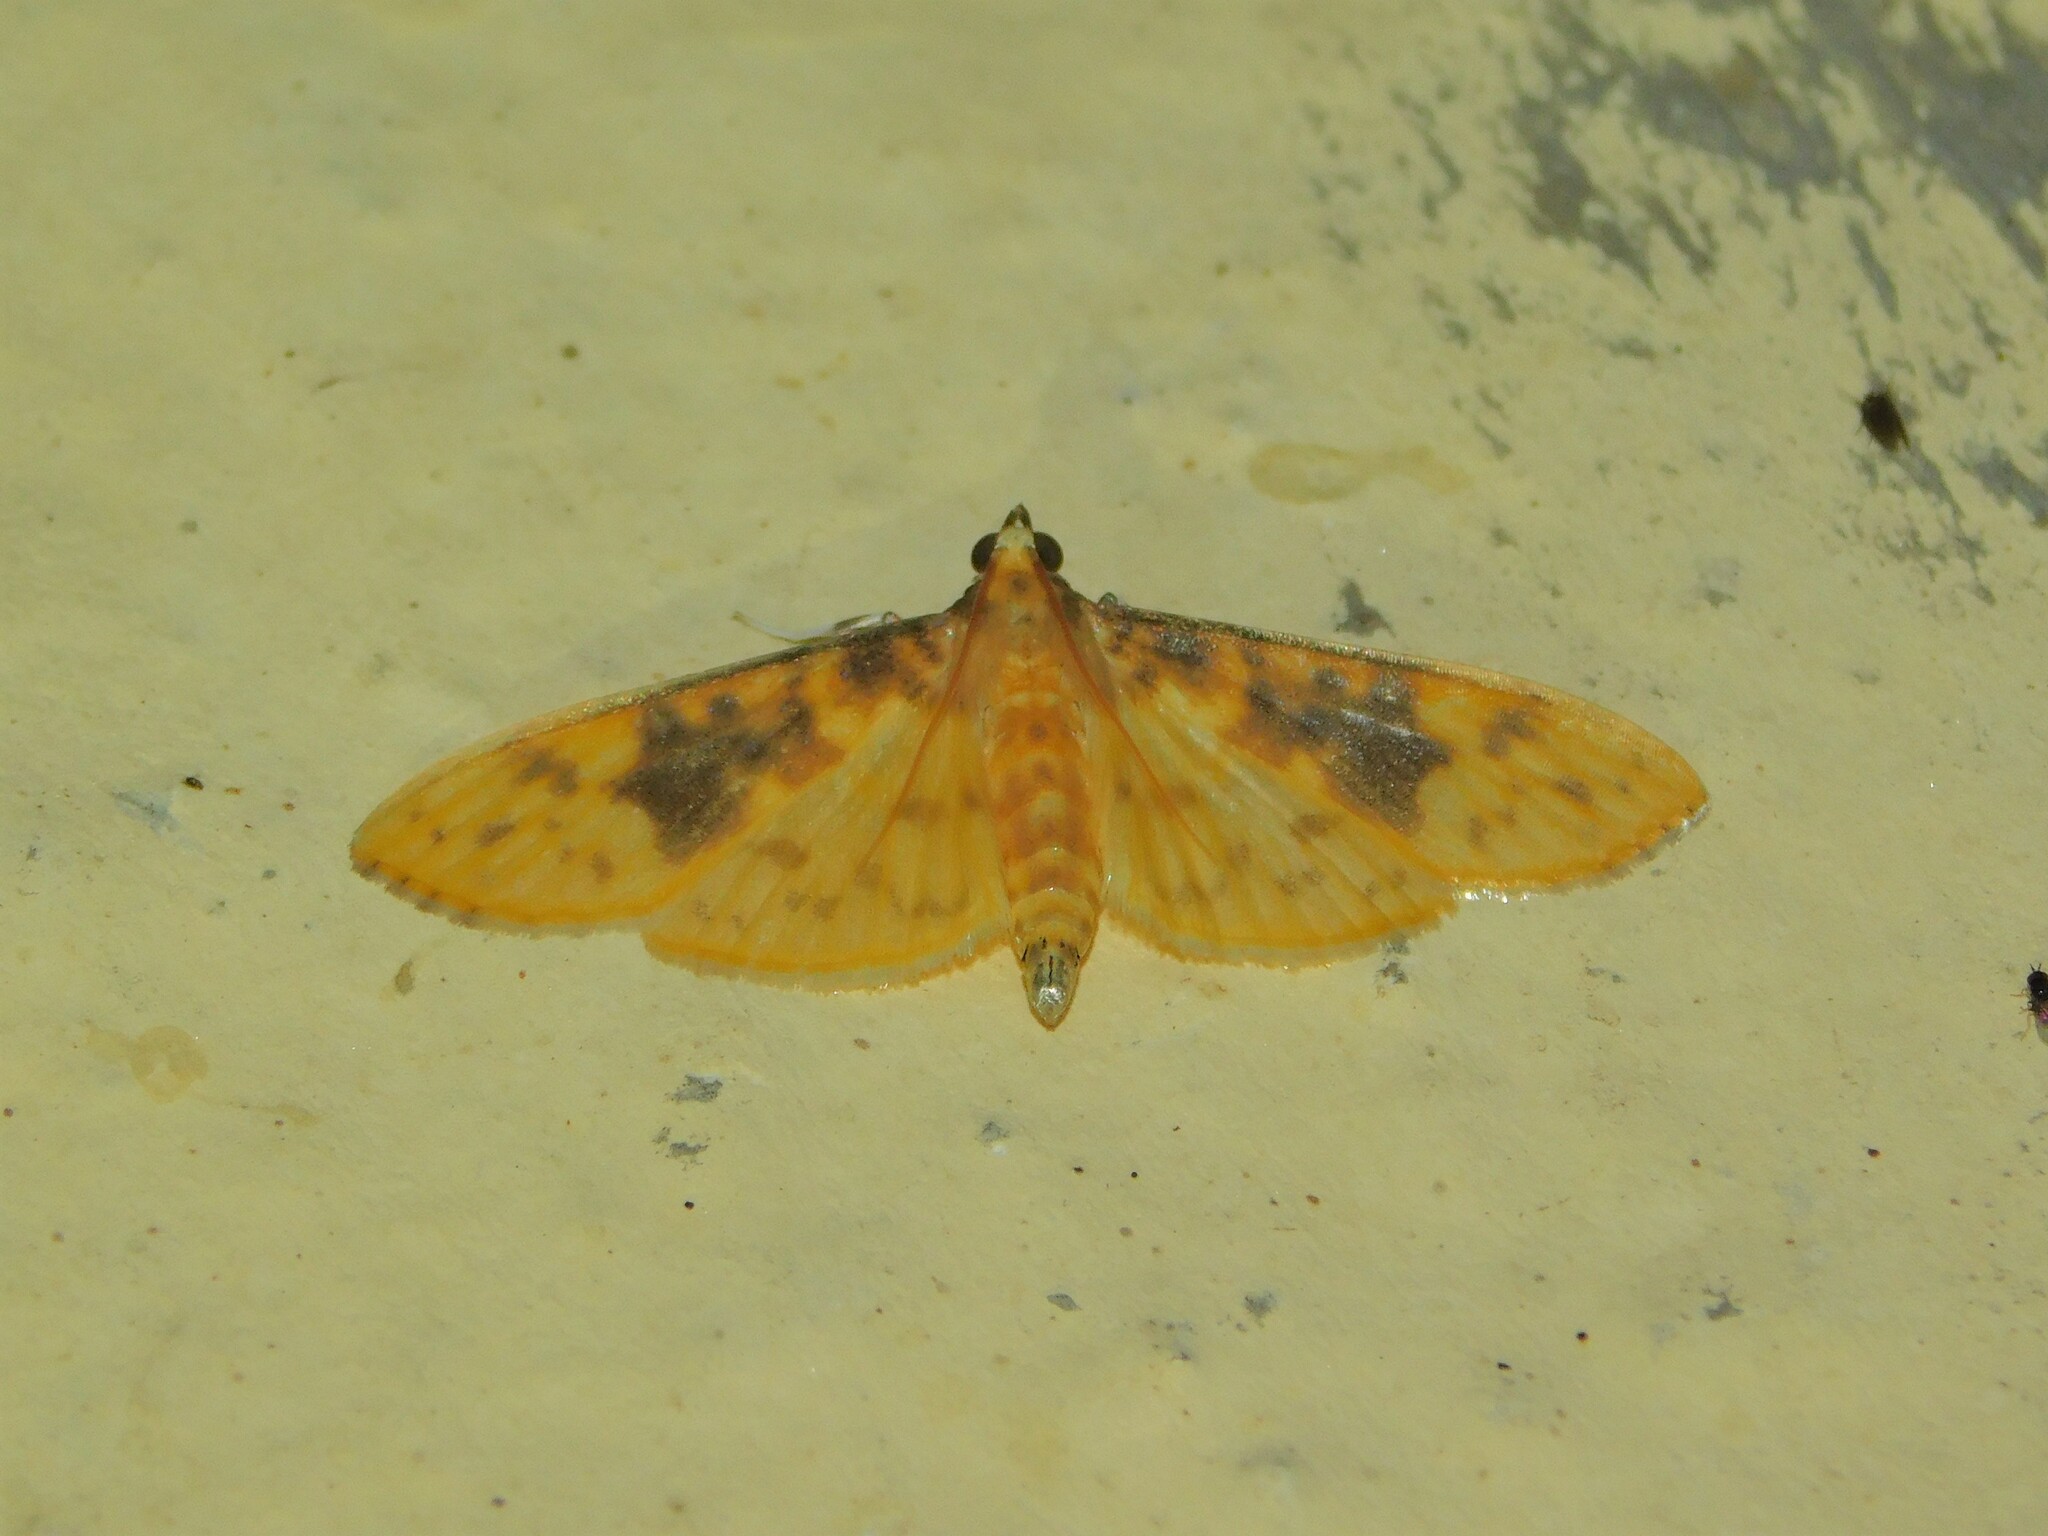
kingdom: Animalia
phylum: Arthropoda
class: Insecta
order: Lepidoptera
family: Crambidae
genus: Ghesquierellana
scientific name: Ghesquierellana hirtusalis
